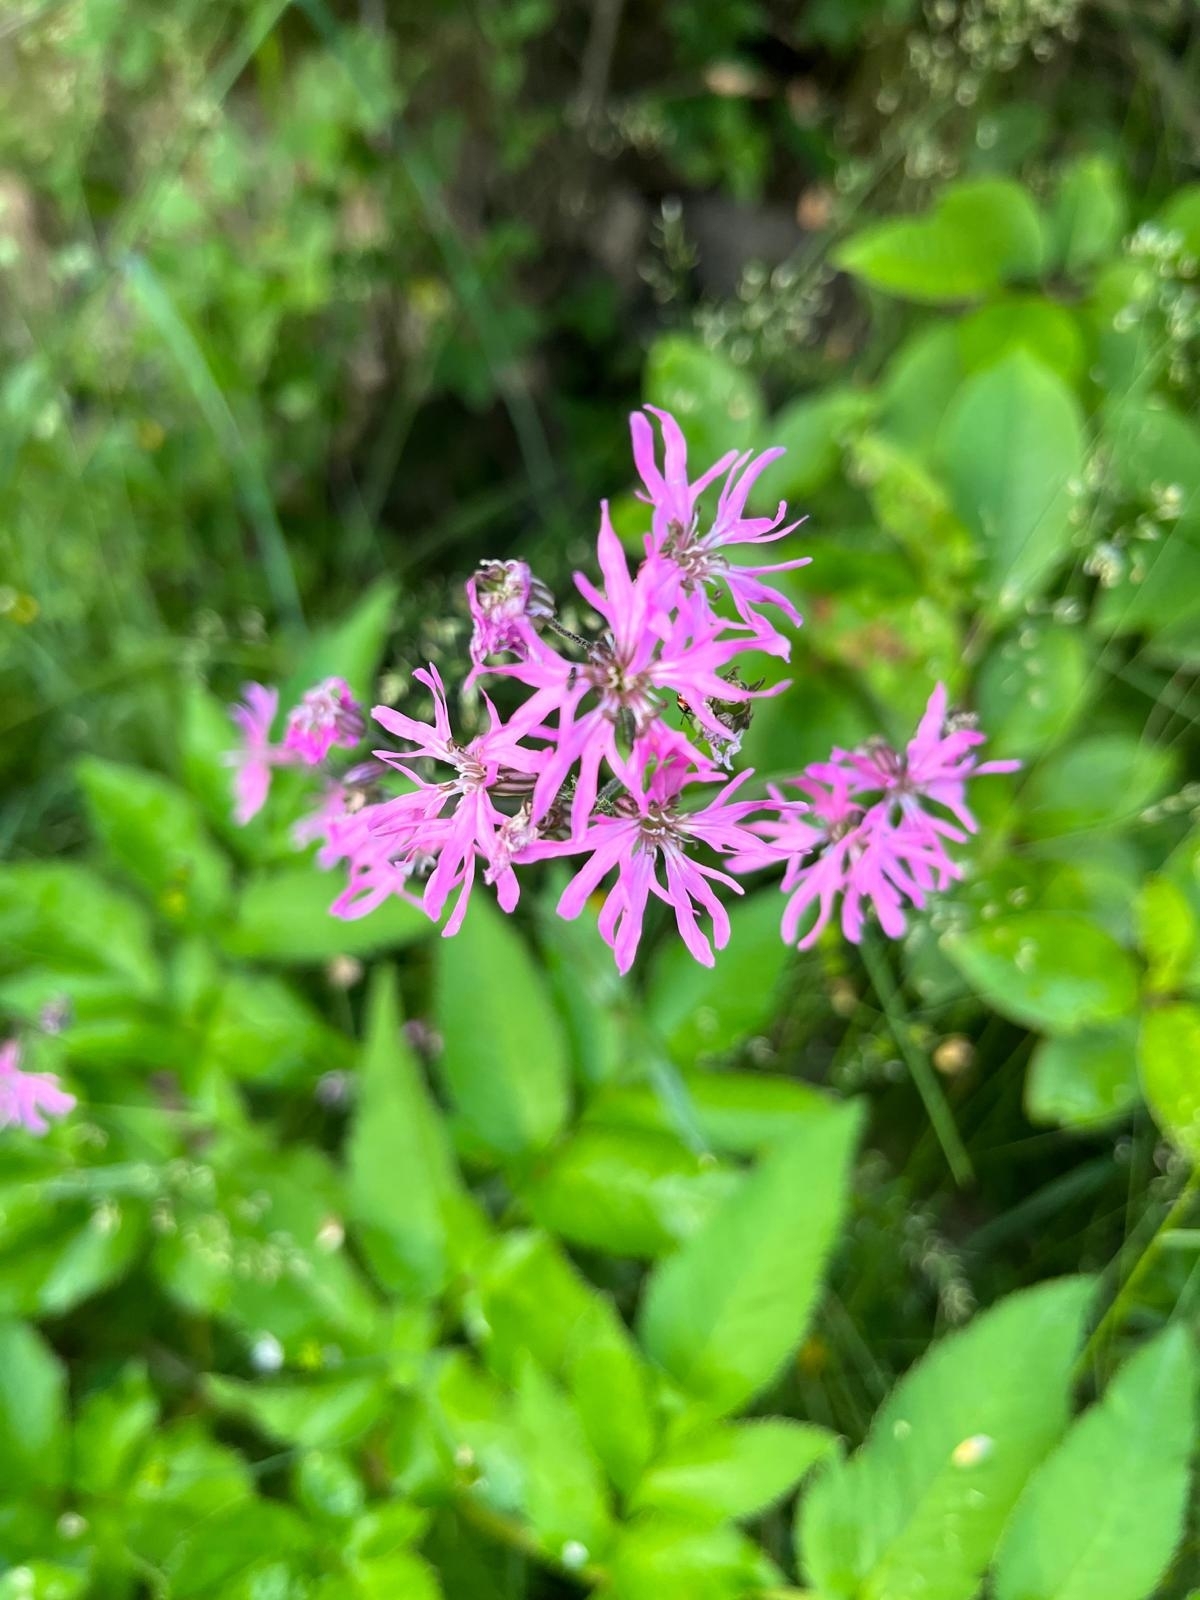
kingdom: Plantae
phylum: Tracheophyta
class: Magnoliopsida
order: Caryophyllales
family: Caryophyllaceae
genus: Silene
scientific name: Silene flos-cuculi
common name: Ragged-robin
